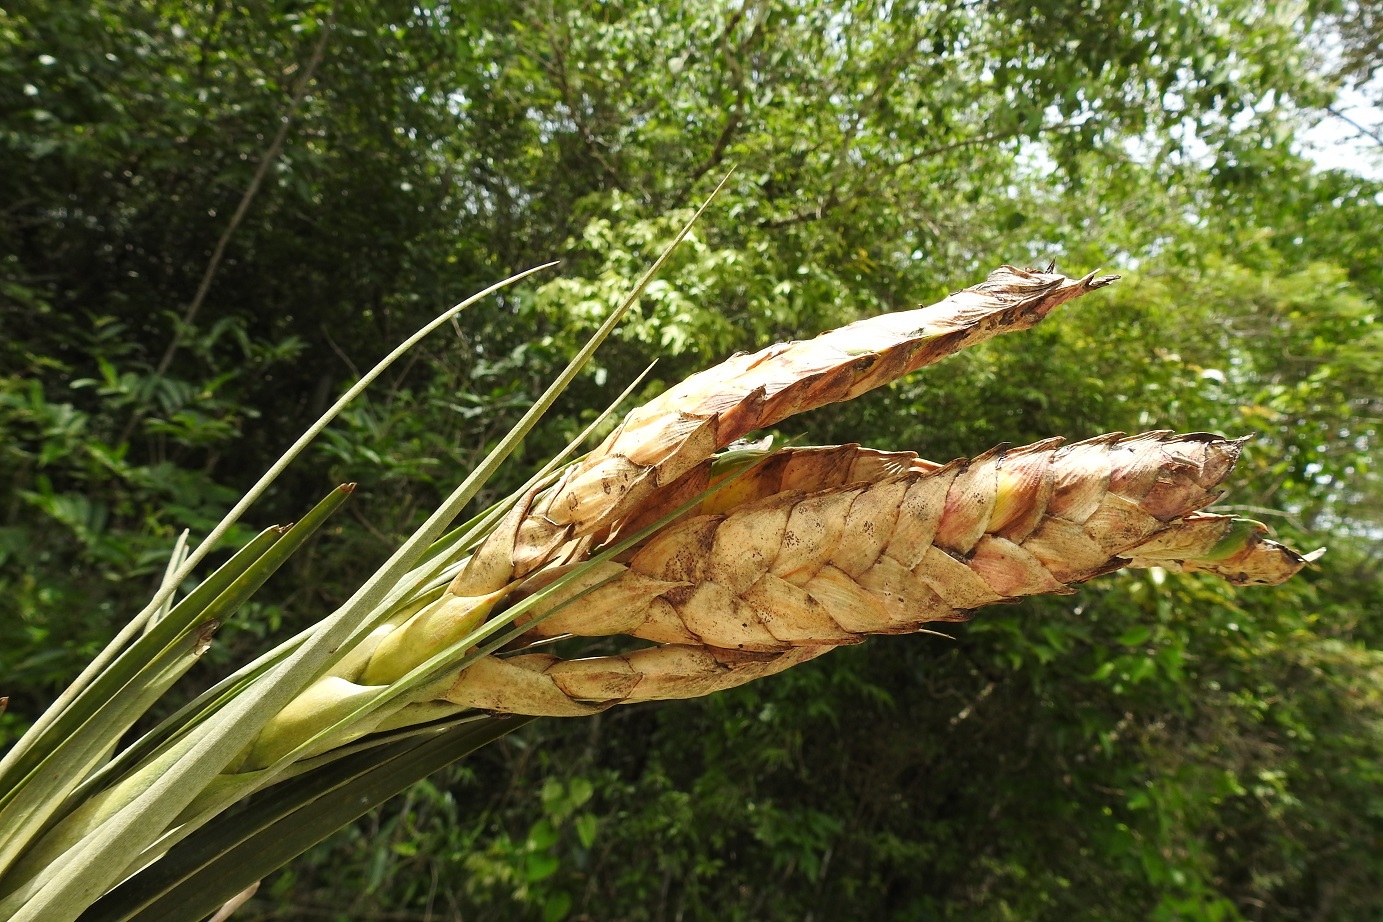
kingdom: Plantae
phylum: Tracheophyta
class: Liliopsida
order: Poales
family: Bromeliaceae
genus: Tillandsia
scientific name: Tillandsia flavobracteata
